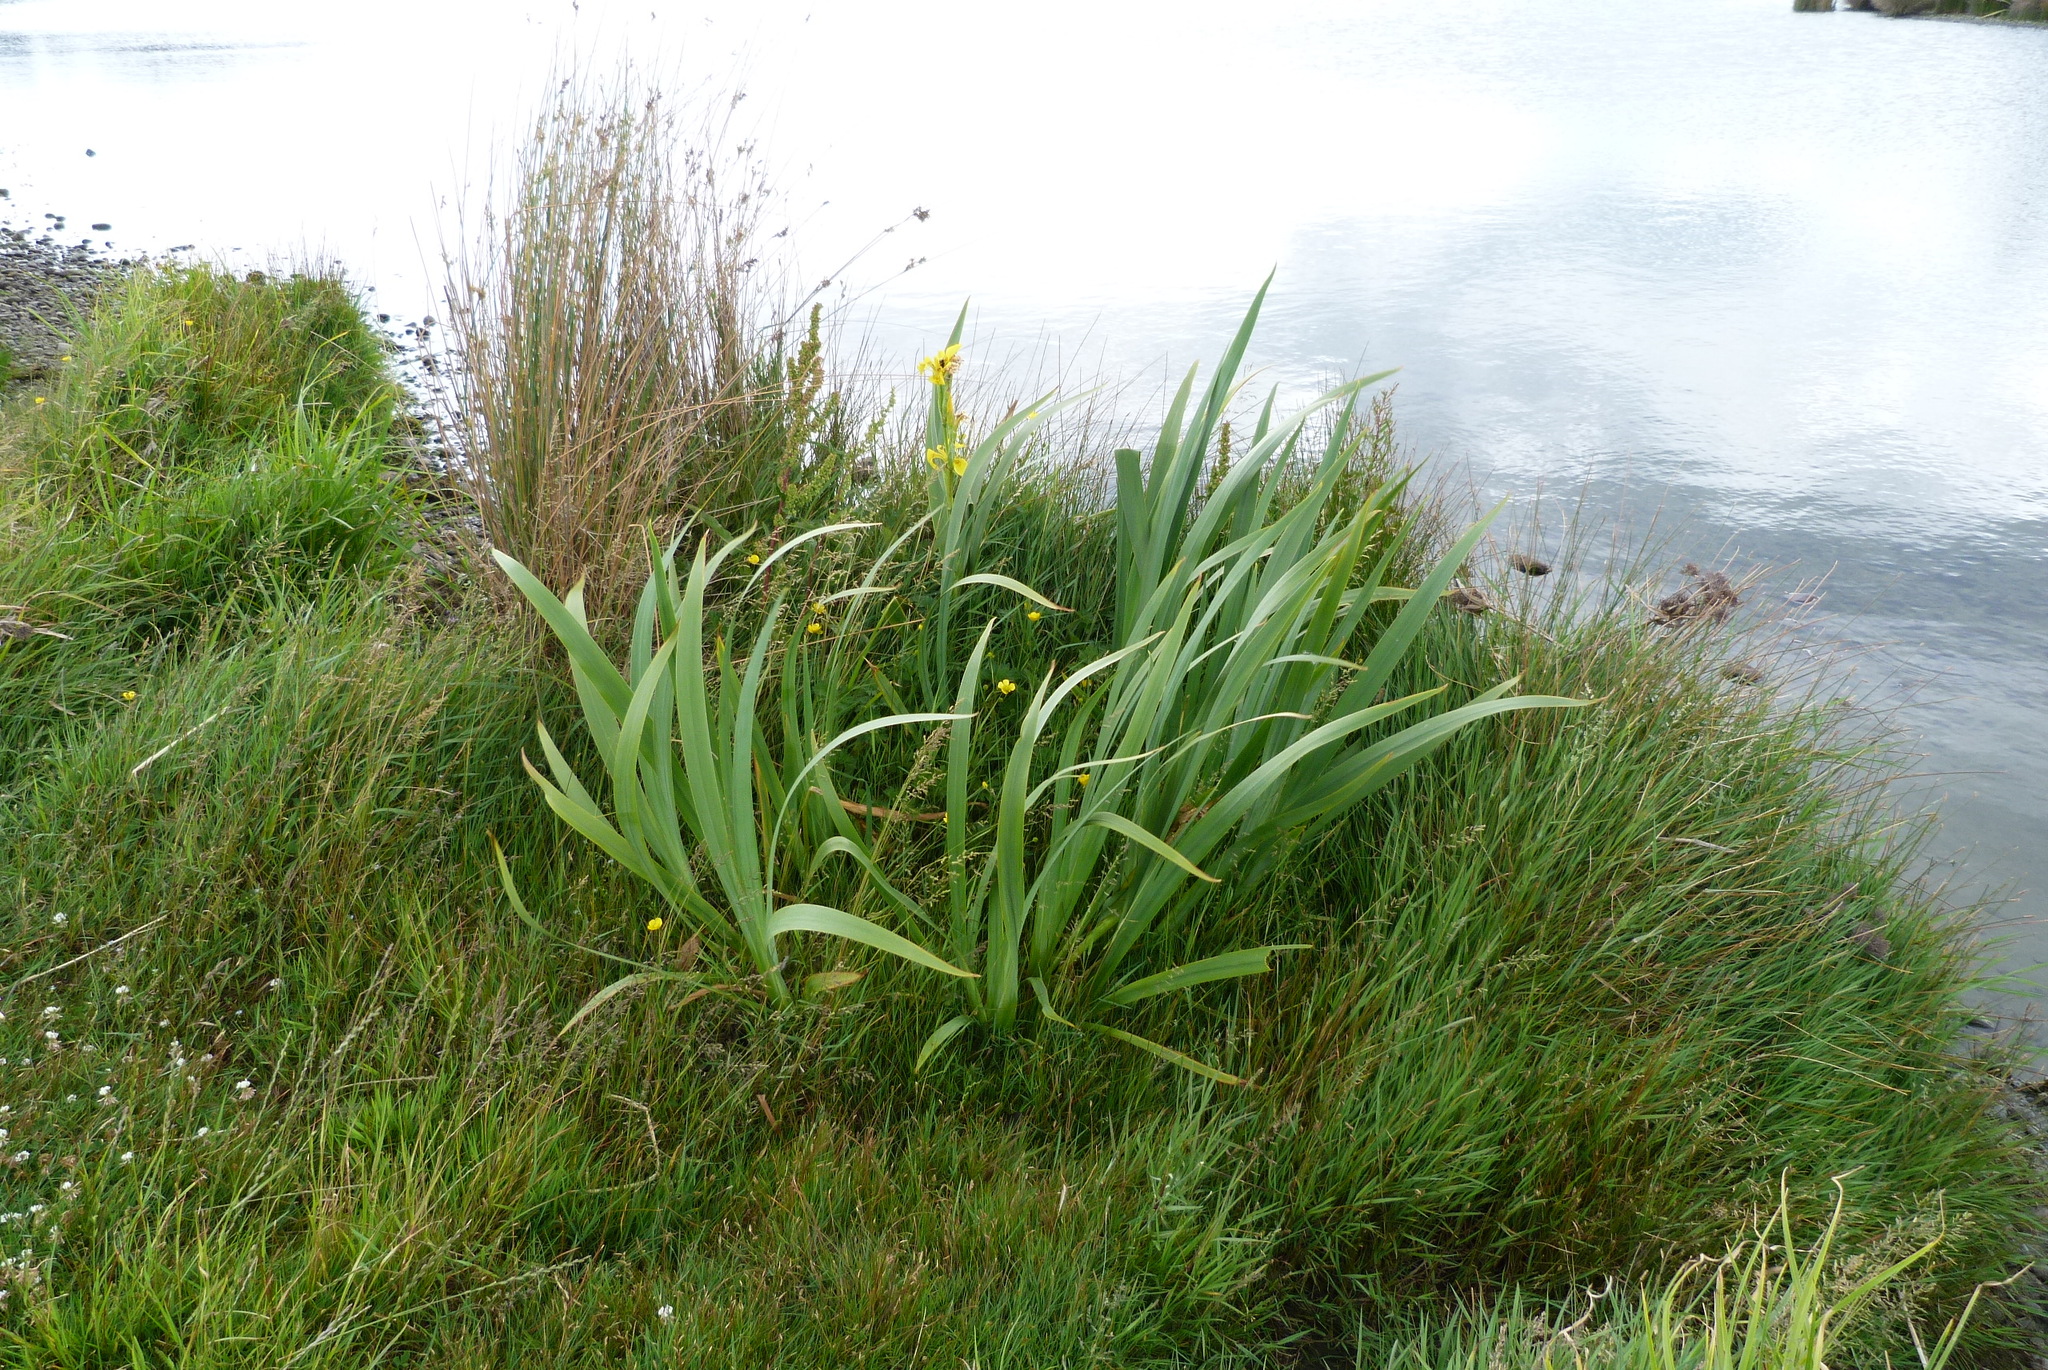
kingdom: Plantae
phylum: Tracheophyta
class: Liliopsida
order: Asparagales
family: Iridaceae
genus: Iris
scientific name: Iris pseudacorus
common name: Yellow flag
